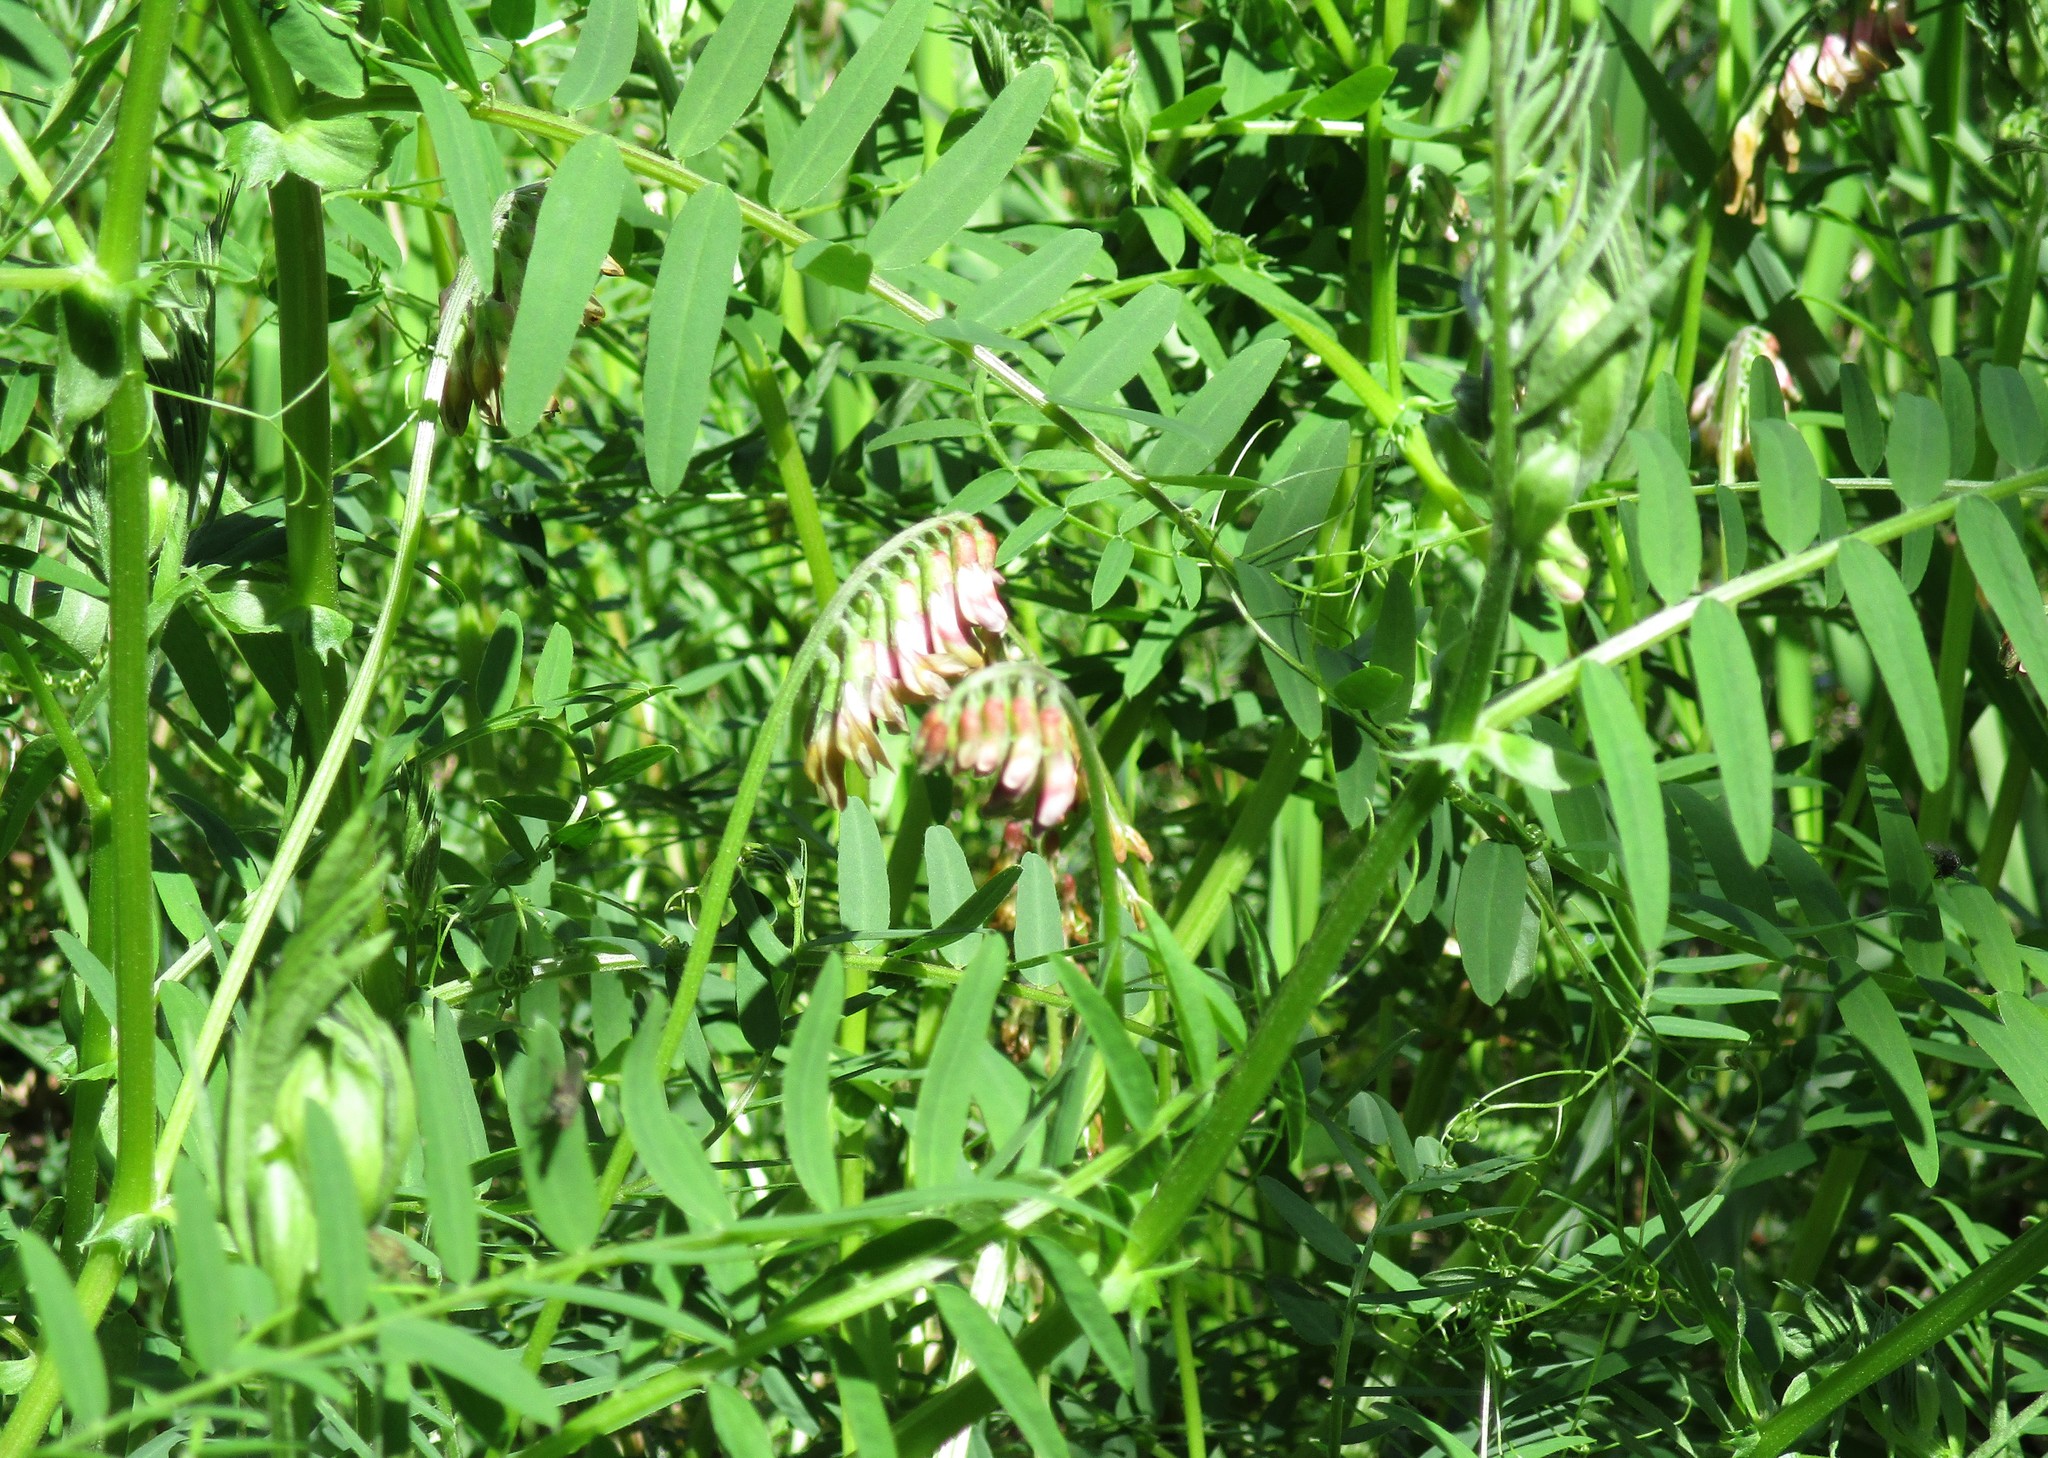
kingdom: Plantae
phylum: Tracheophyta
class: Magnoliopsida
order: Fabales
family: Fabaceae
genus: Vicia
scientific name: Vicia
